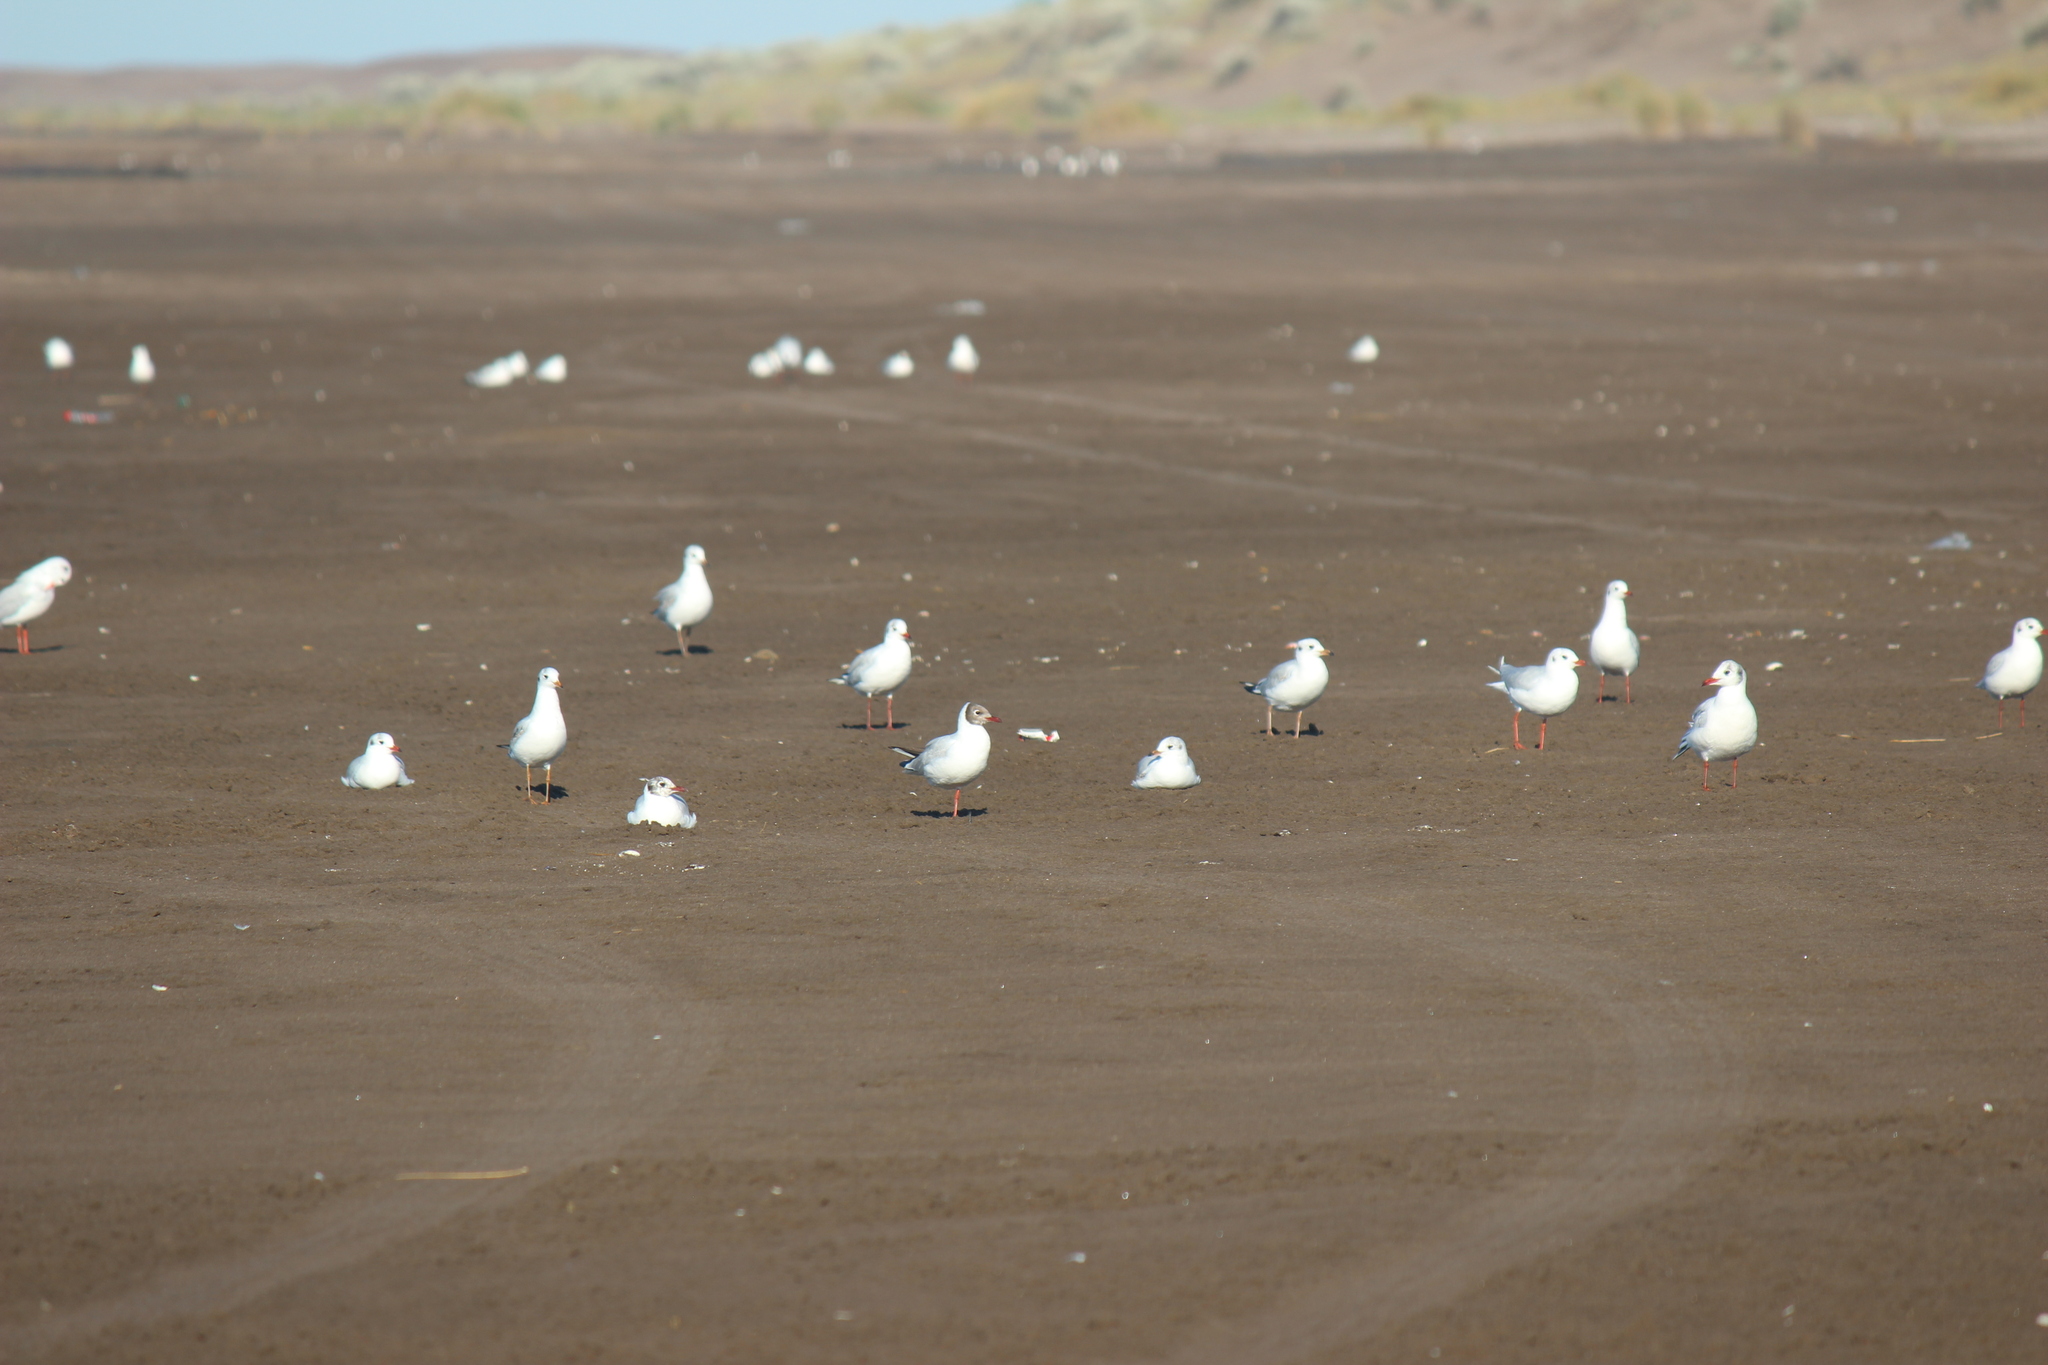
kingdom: Animalia
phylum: Chordata
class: Aves
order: Charadriiformes
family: Laridae
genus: Chroicocephalus
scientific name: Chroicocephalus maculipennis
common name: Brown-hooded gull
